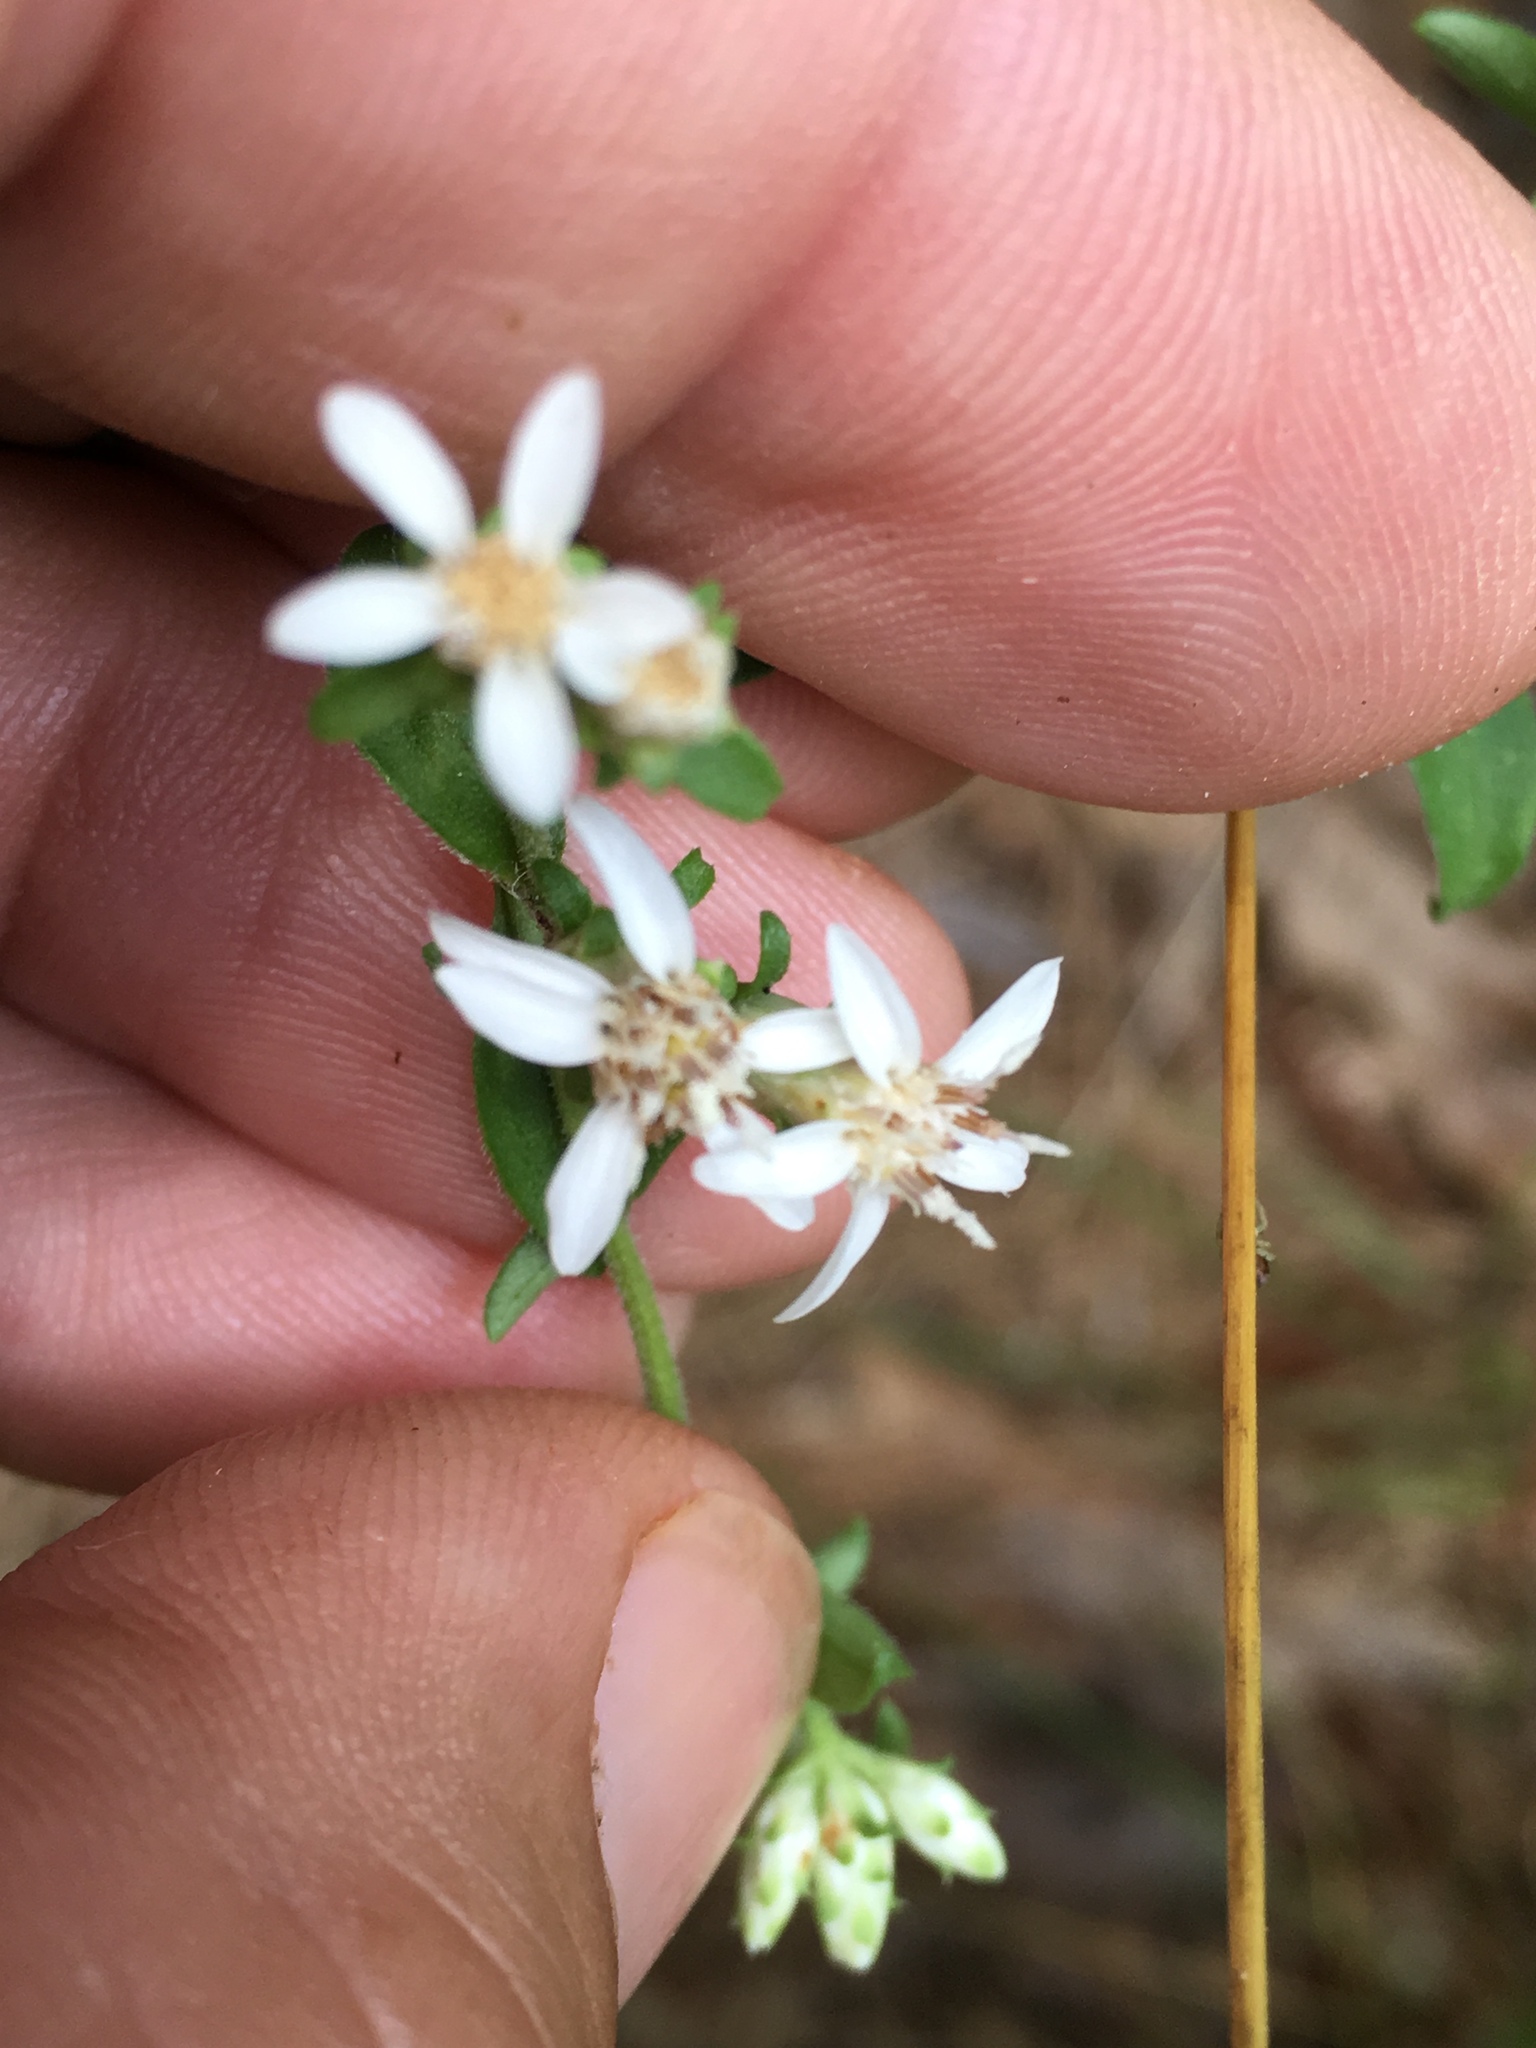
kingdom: Plantae
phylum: Tracheophyta
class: Magnoliopsida
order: Asterales
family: Asteraceae
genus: Sericocarpus
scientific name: Sericocarpus asteroides
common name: Toothed white-top aster
